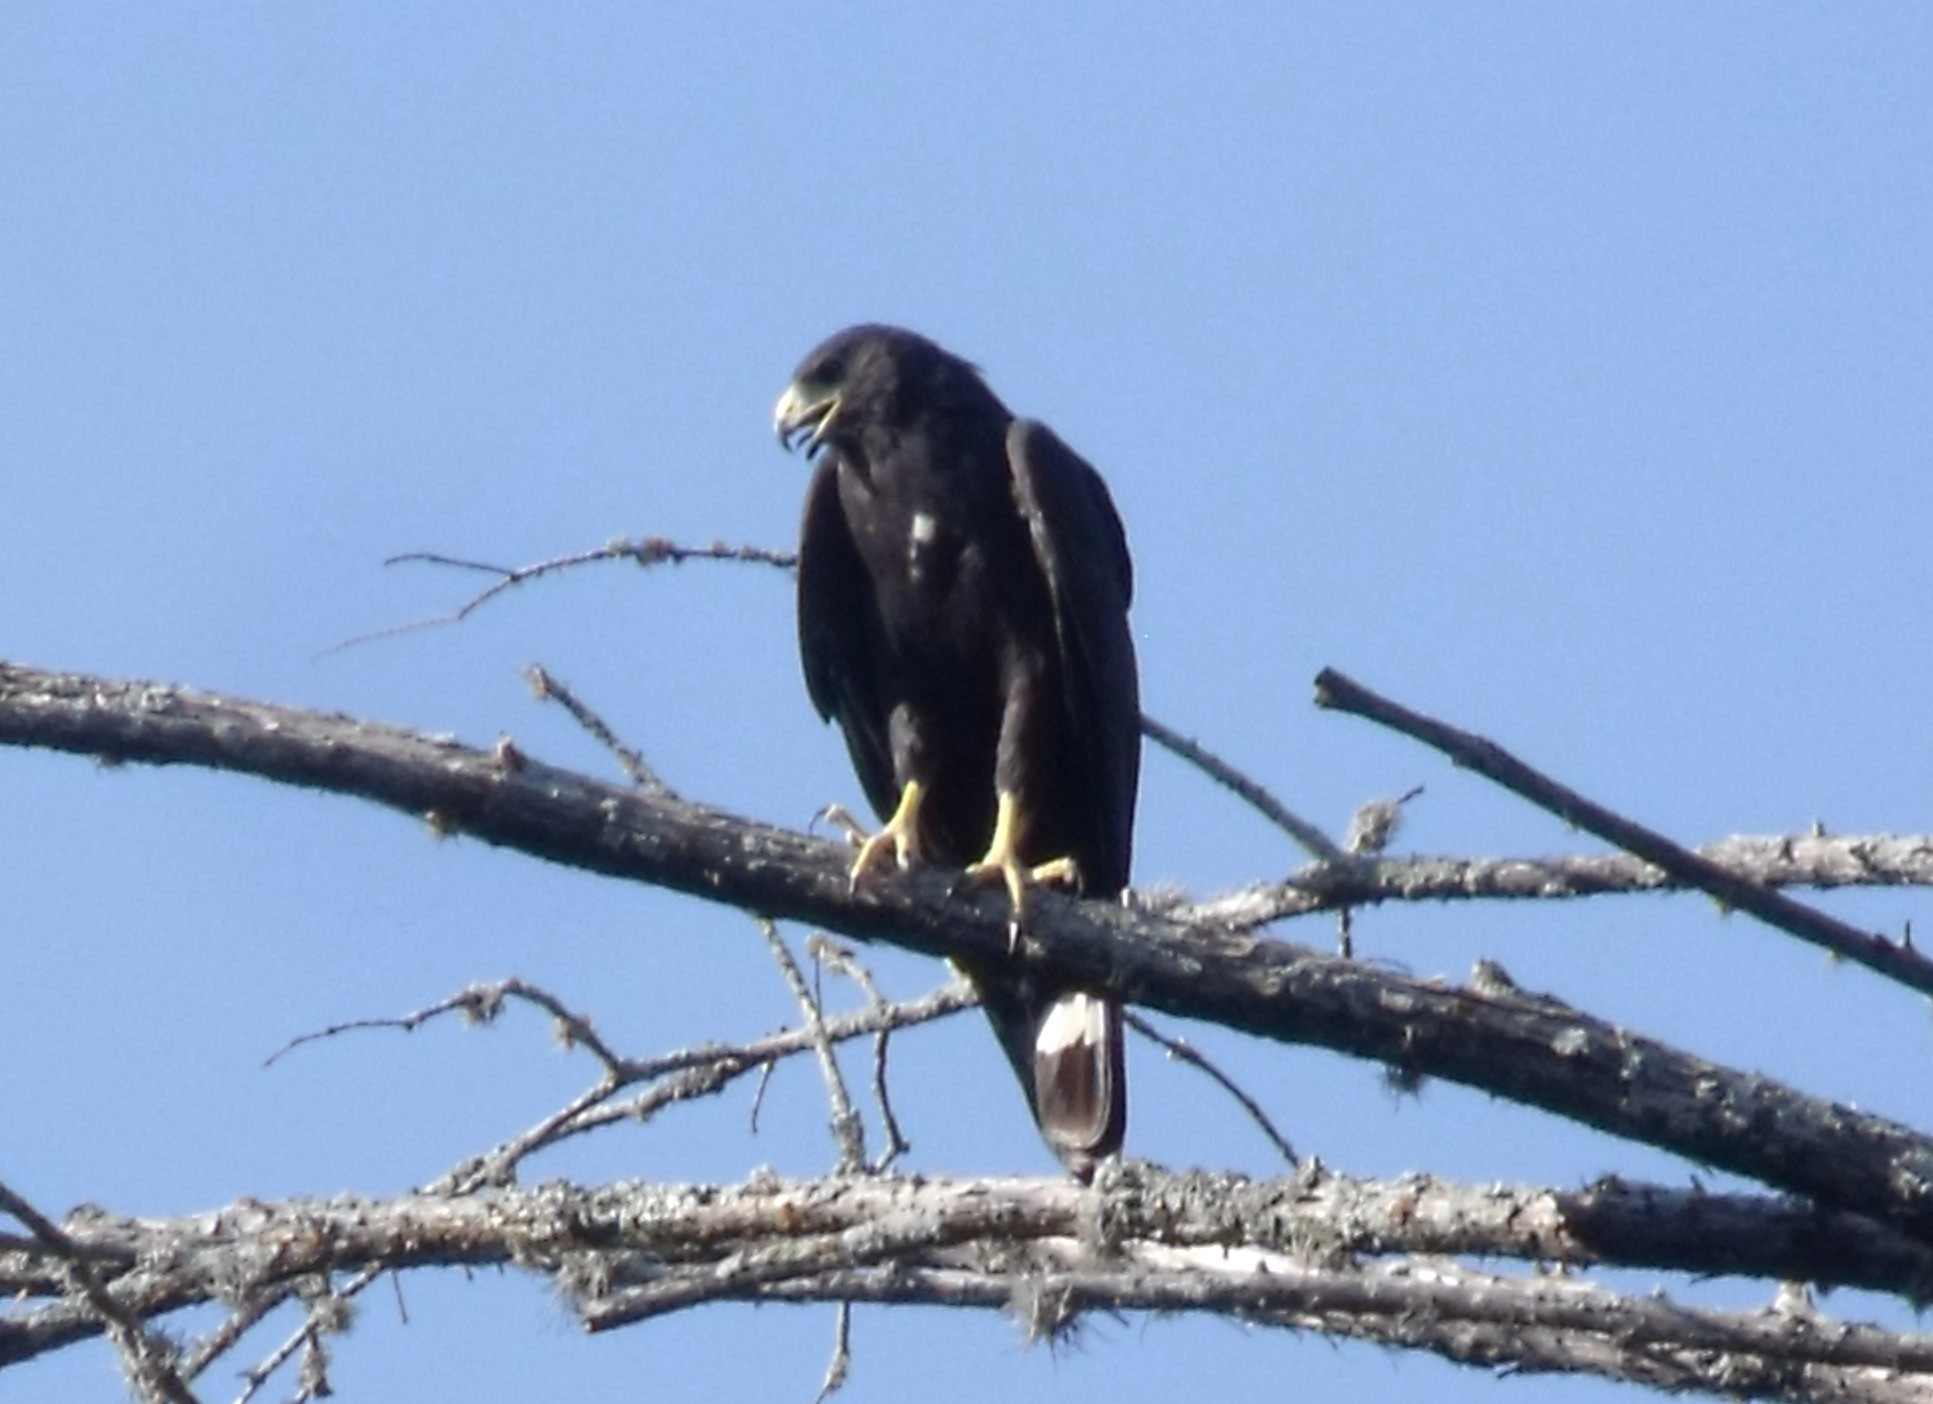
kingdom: Animalia
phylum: Chordata
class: Aves
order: Accipitriformes
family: Accipitridae
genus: Buteo
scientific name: Buteo albonotatus
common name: Zone-tailed hawk
